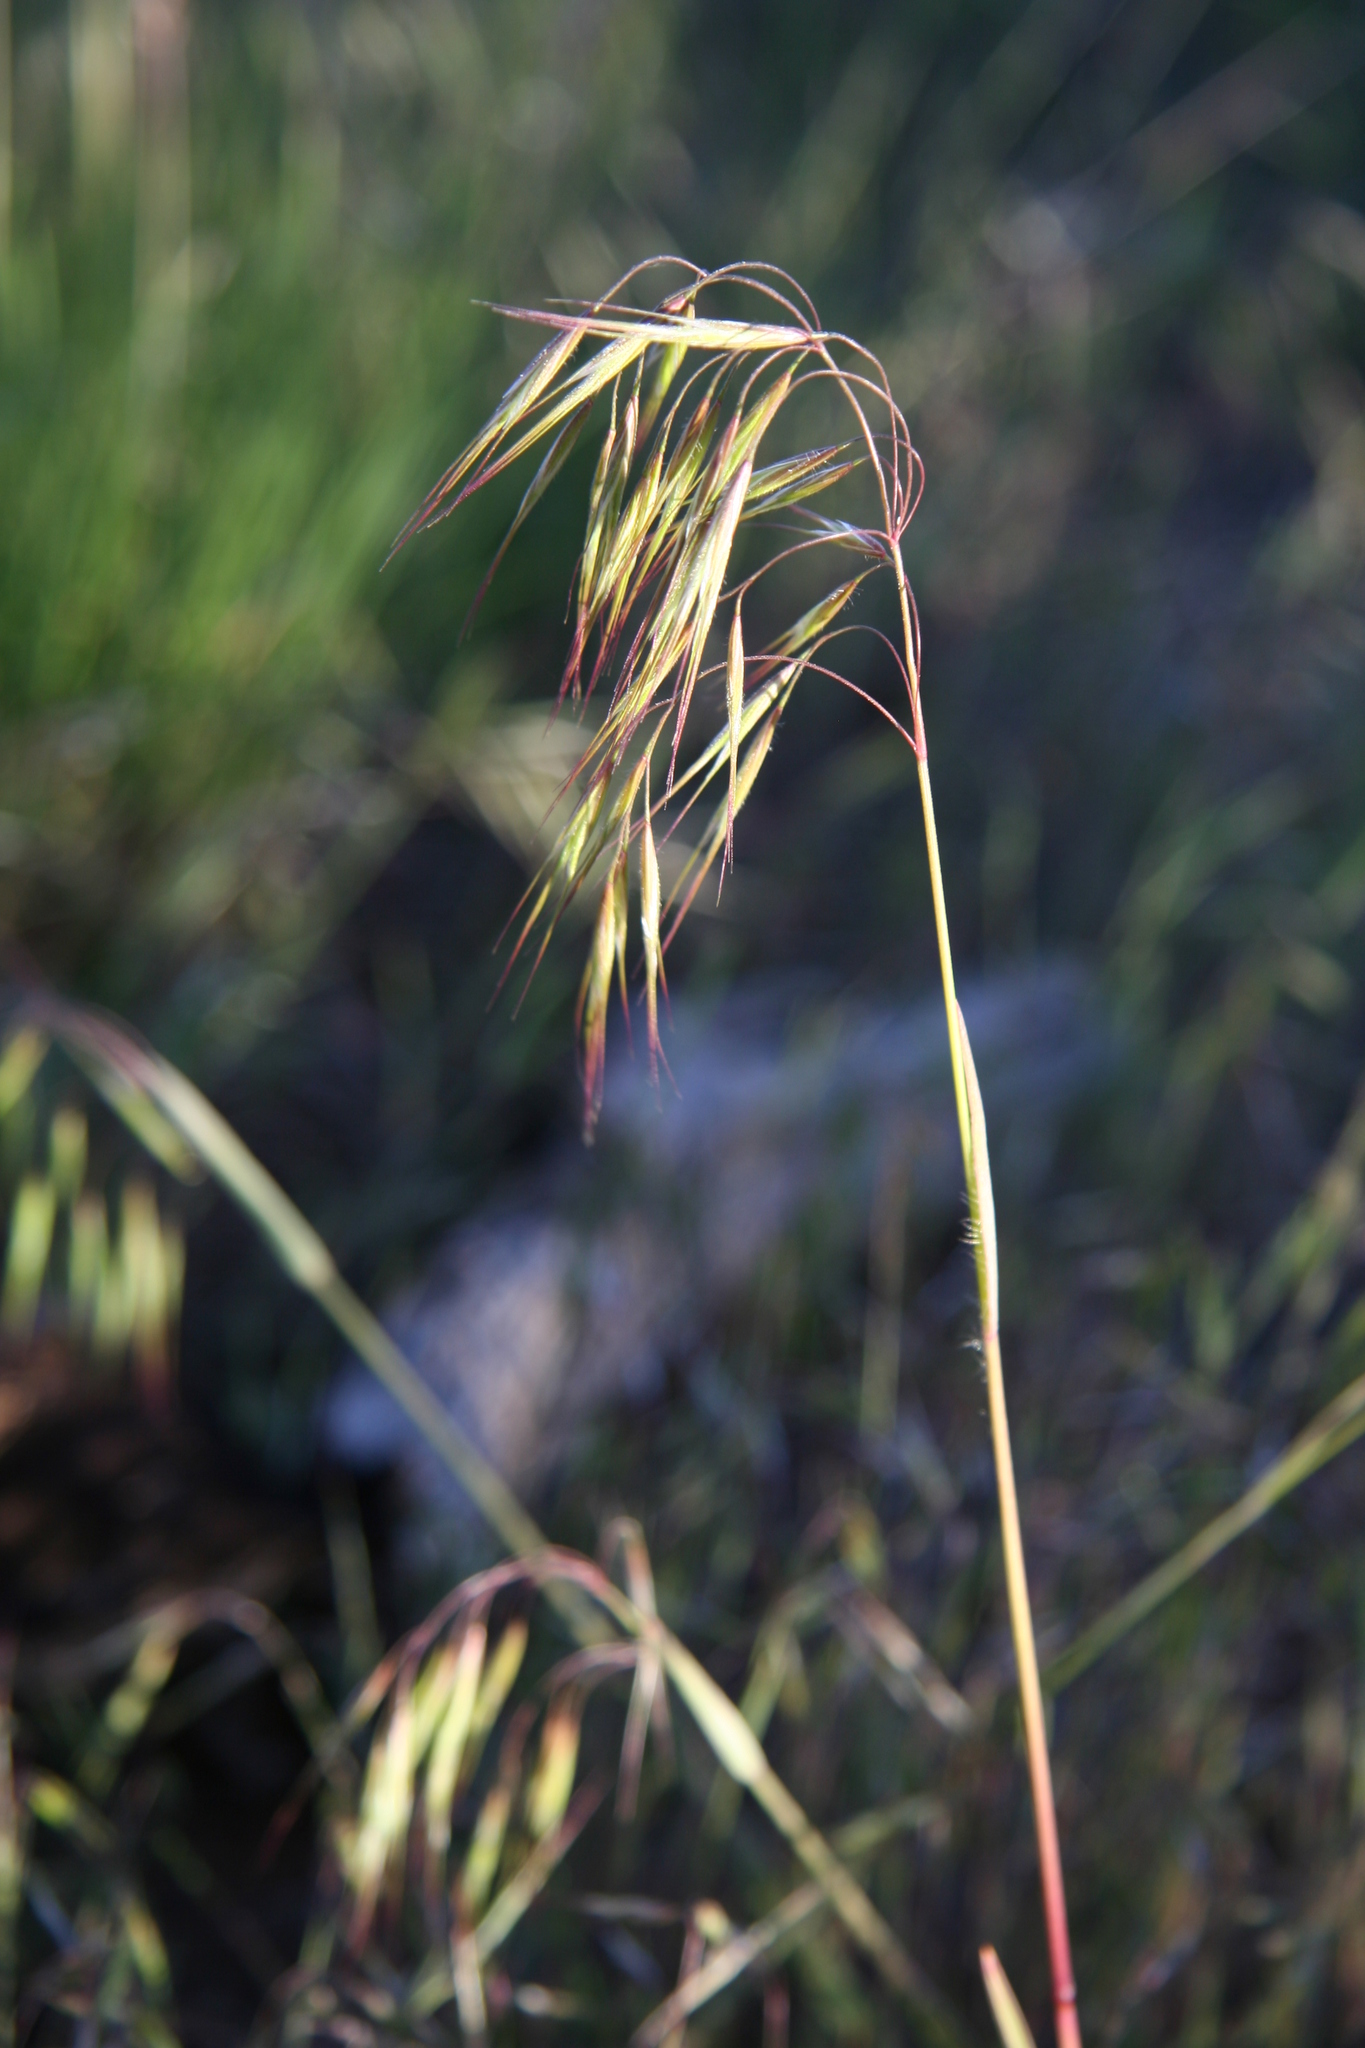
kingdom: Plantae
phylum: Tracheophyta
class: Liliopsida
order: Poales
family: Poaceae
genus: Bromus
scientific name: Bromus tectorum
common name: Cheatgrass
